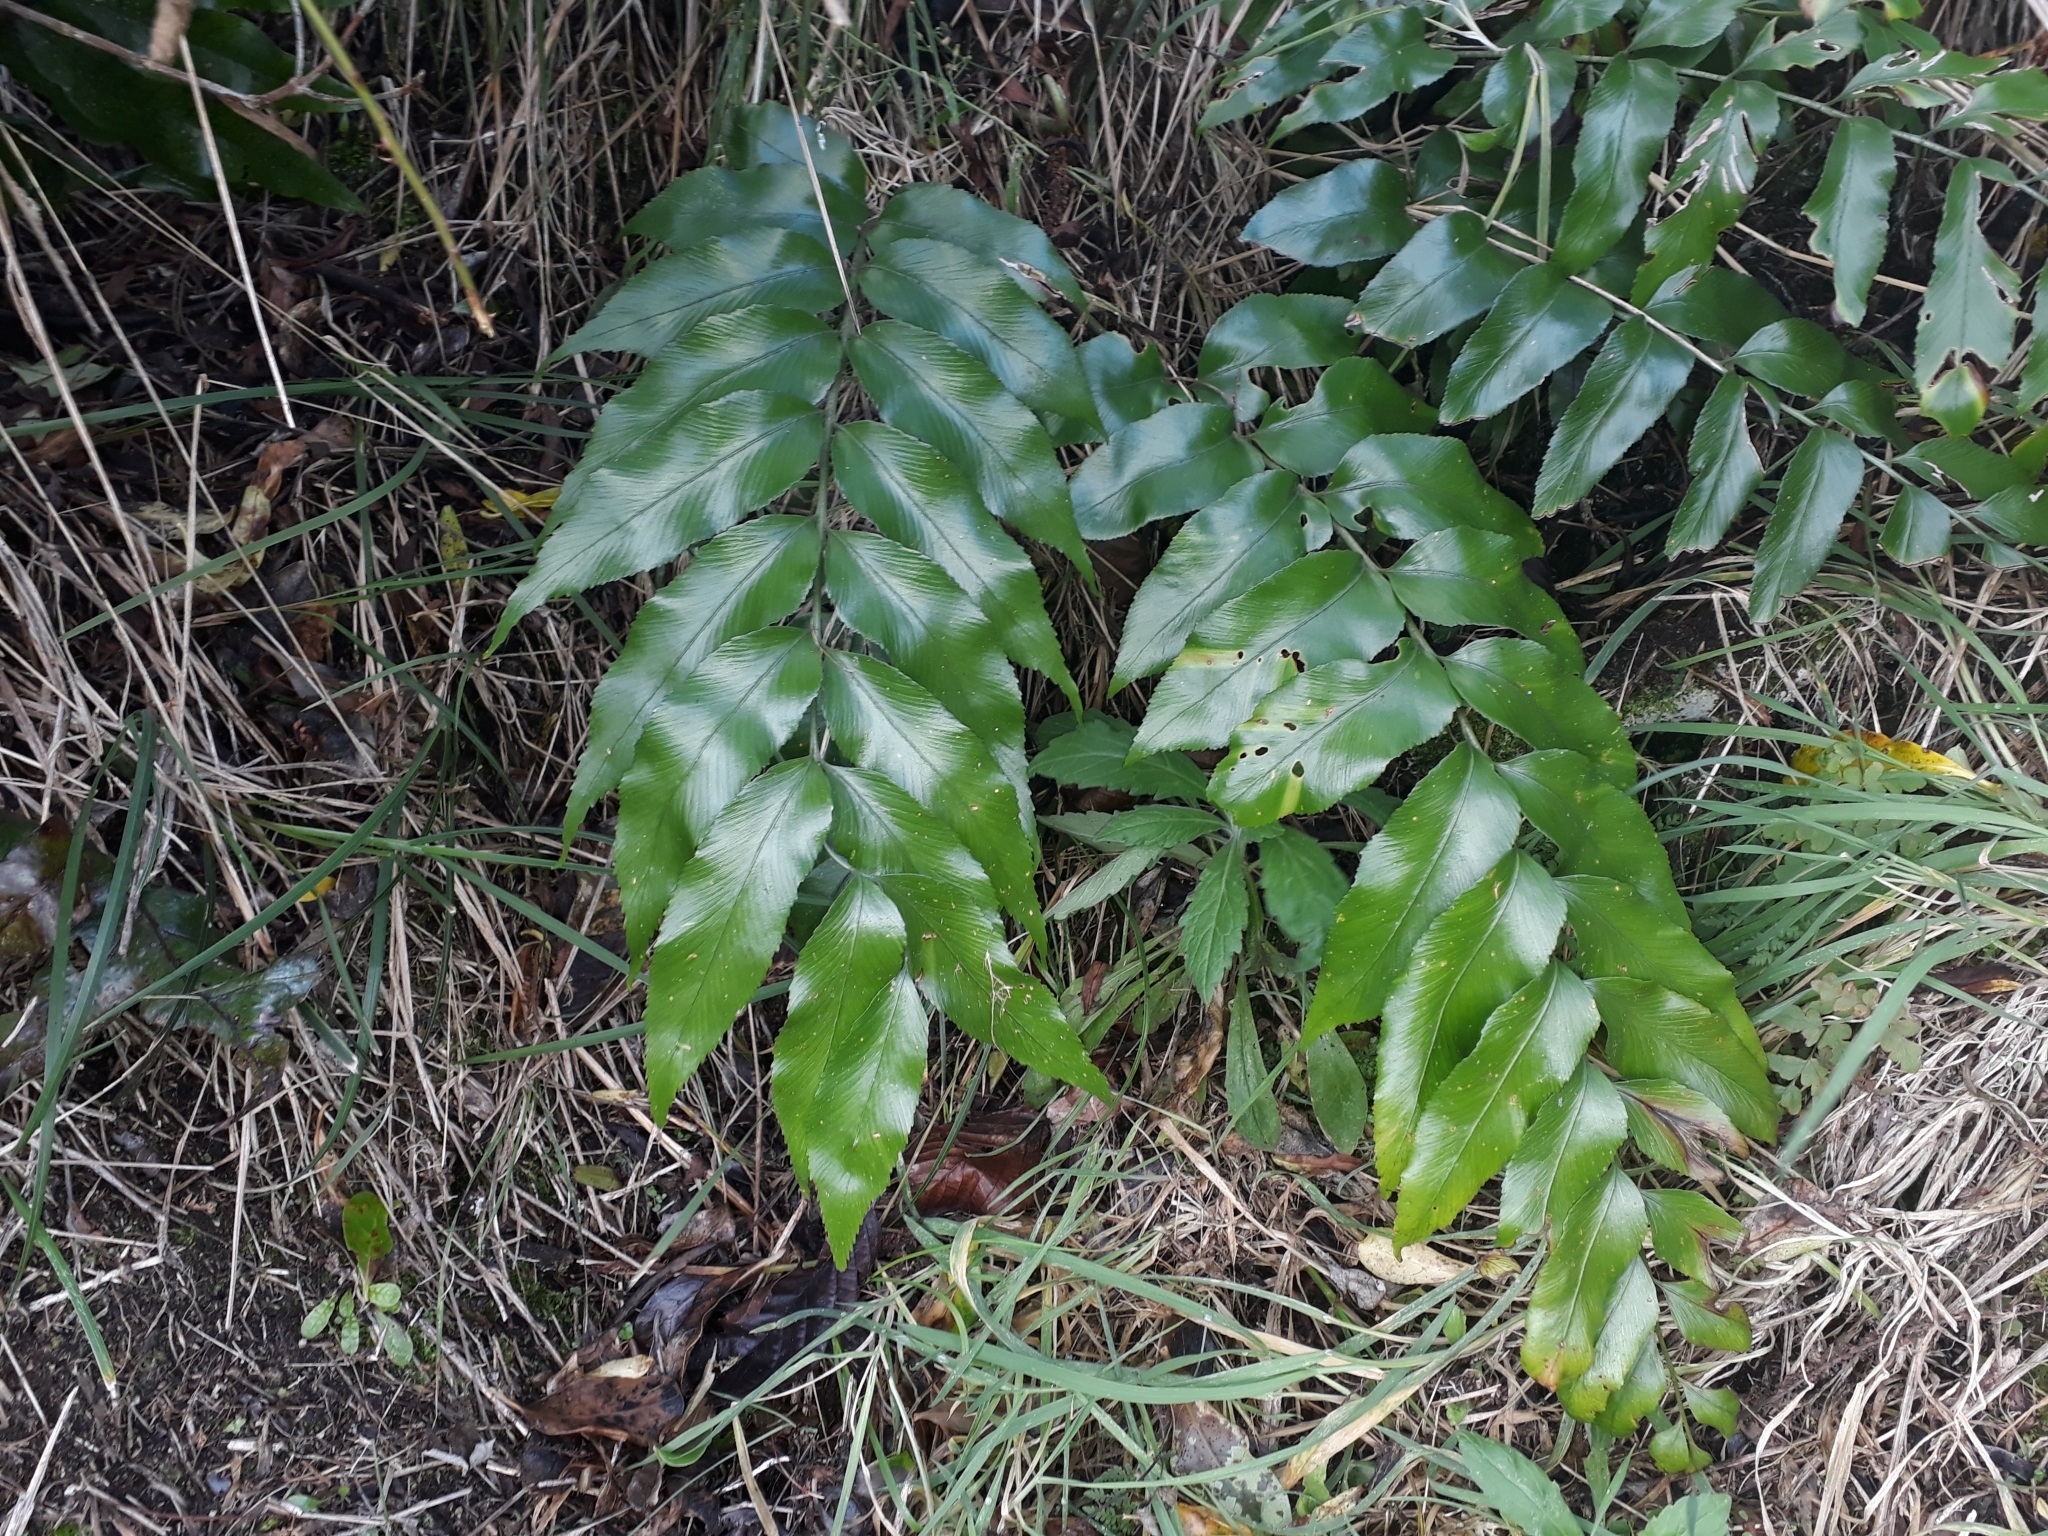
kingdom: Plantae
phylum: Tracheophyta
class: Polypodiopsida
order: Polypodiales
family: Aspleniaceae
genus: Asplenium
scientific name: Asplenium oblongifolium
